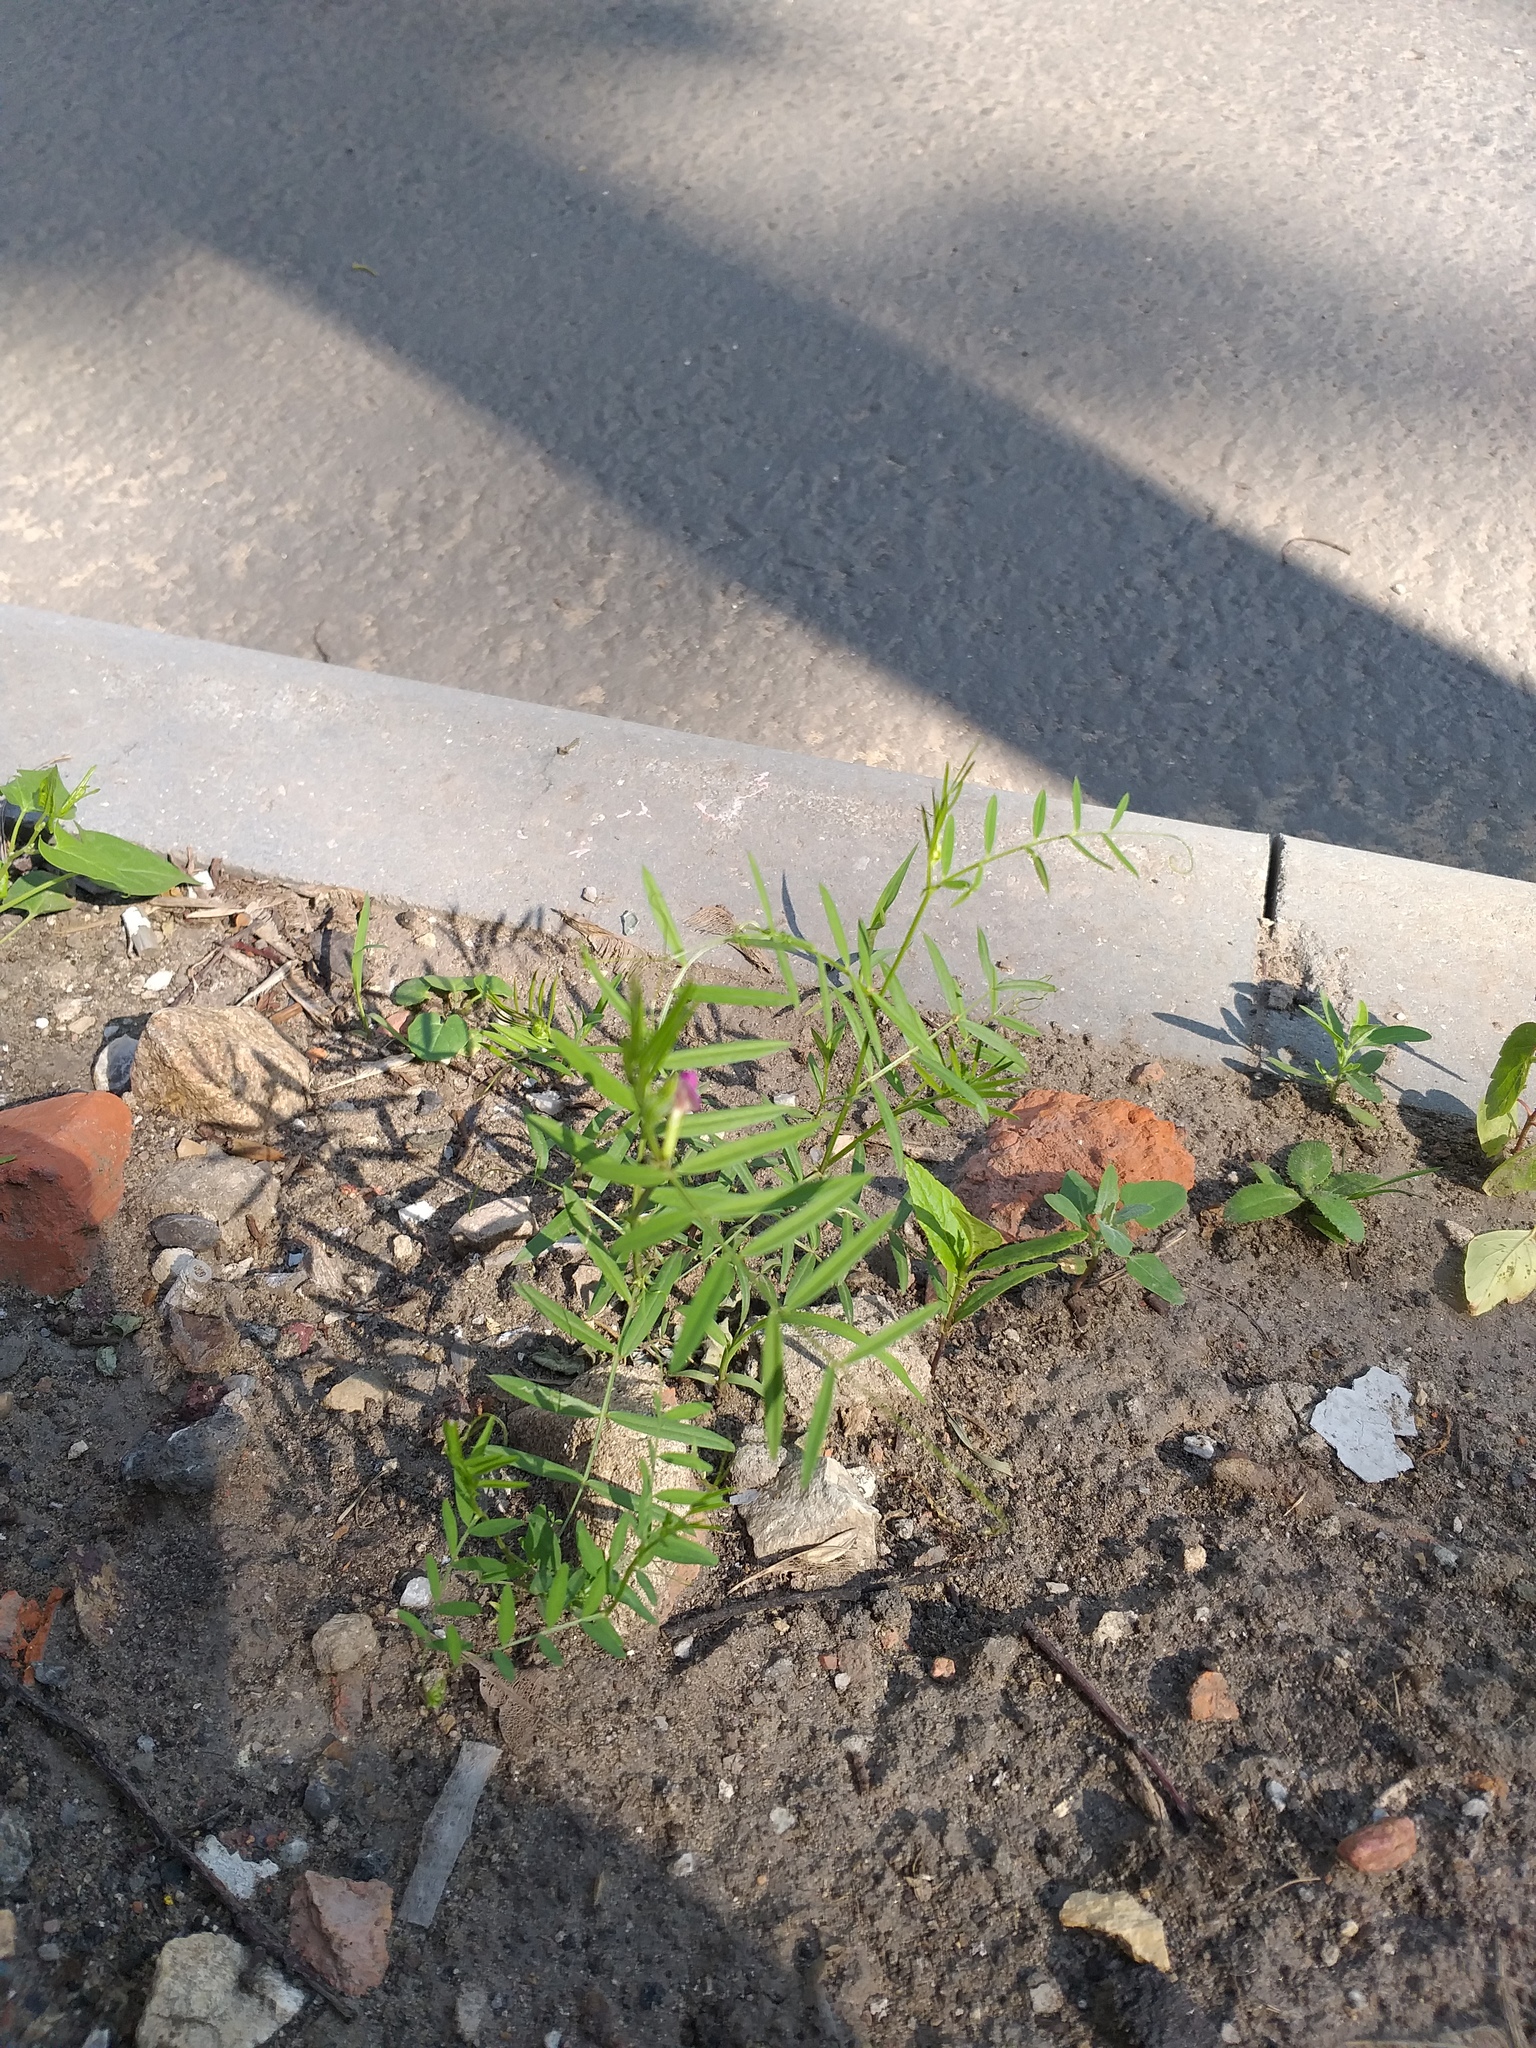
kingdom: Plantae
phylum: Tracheophyta
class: Magnoliopsida
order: Fabales
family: Fabaceae
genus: Vicia
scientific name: Vicia sativa
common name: Garden vetch
